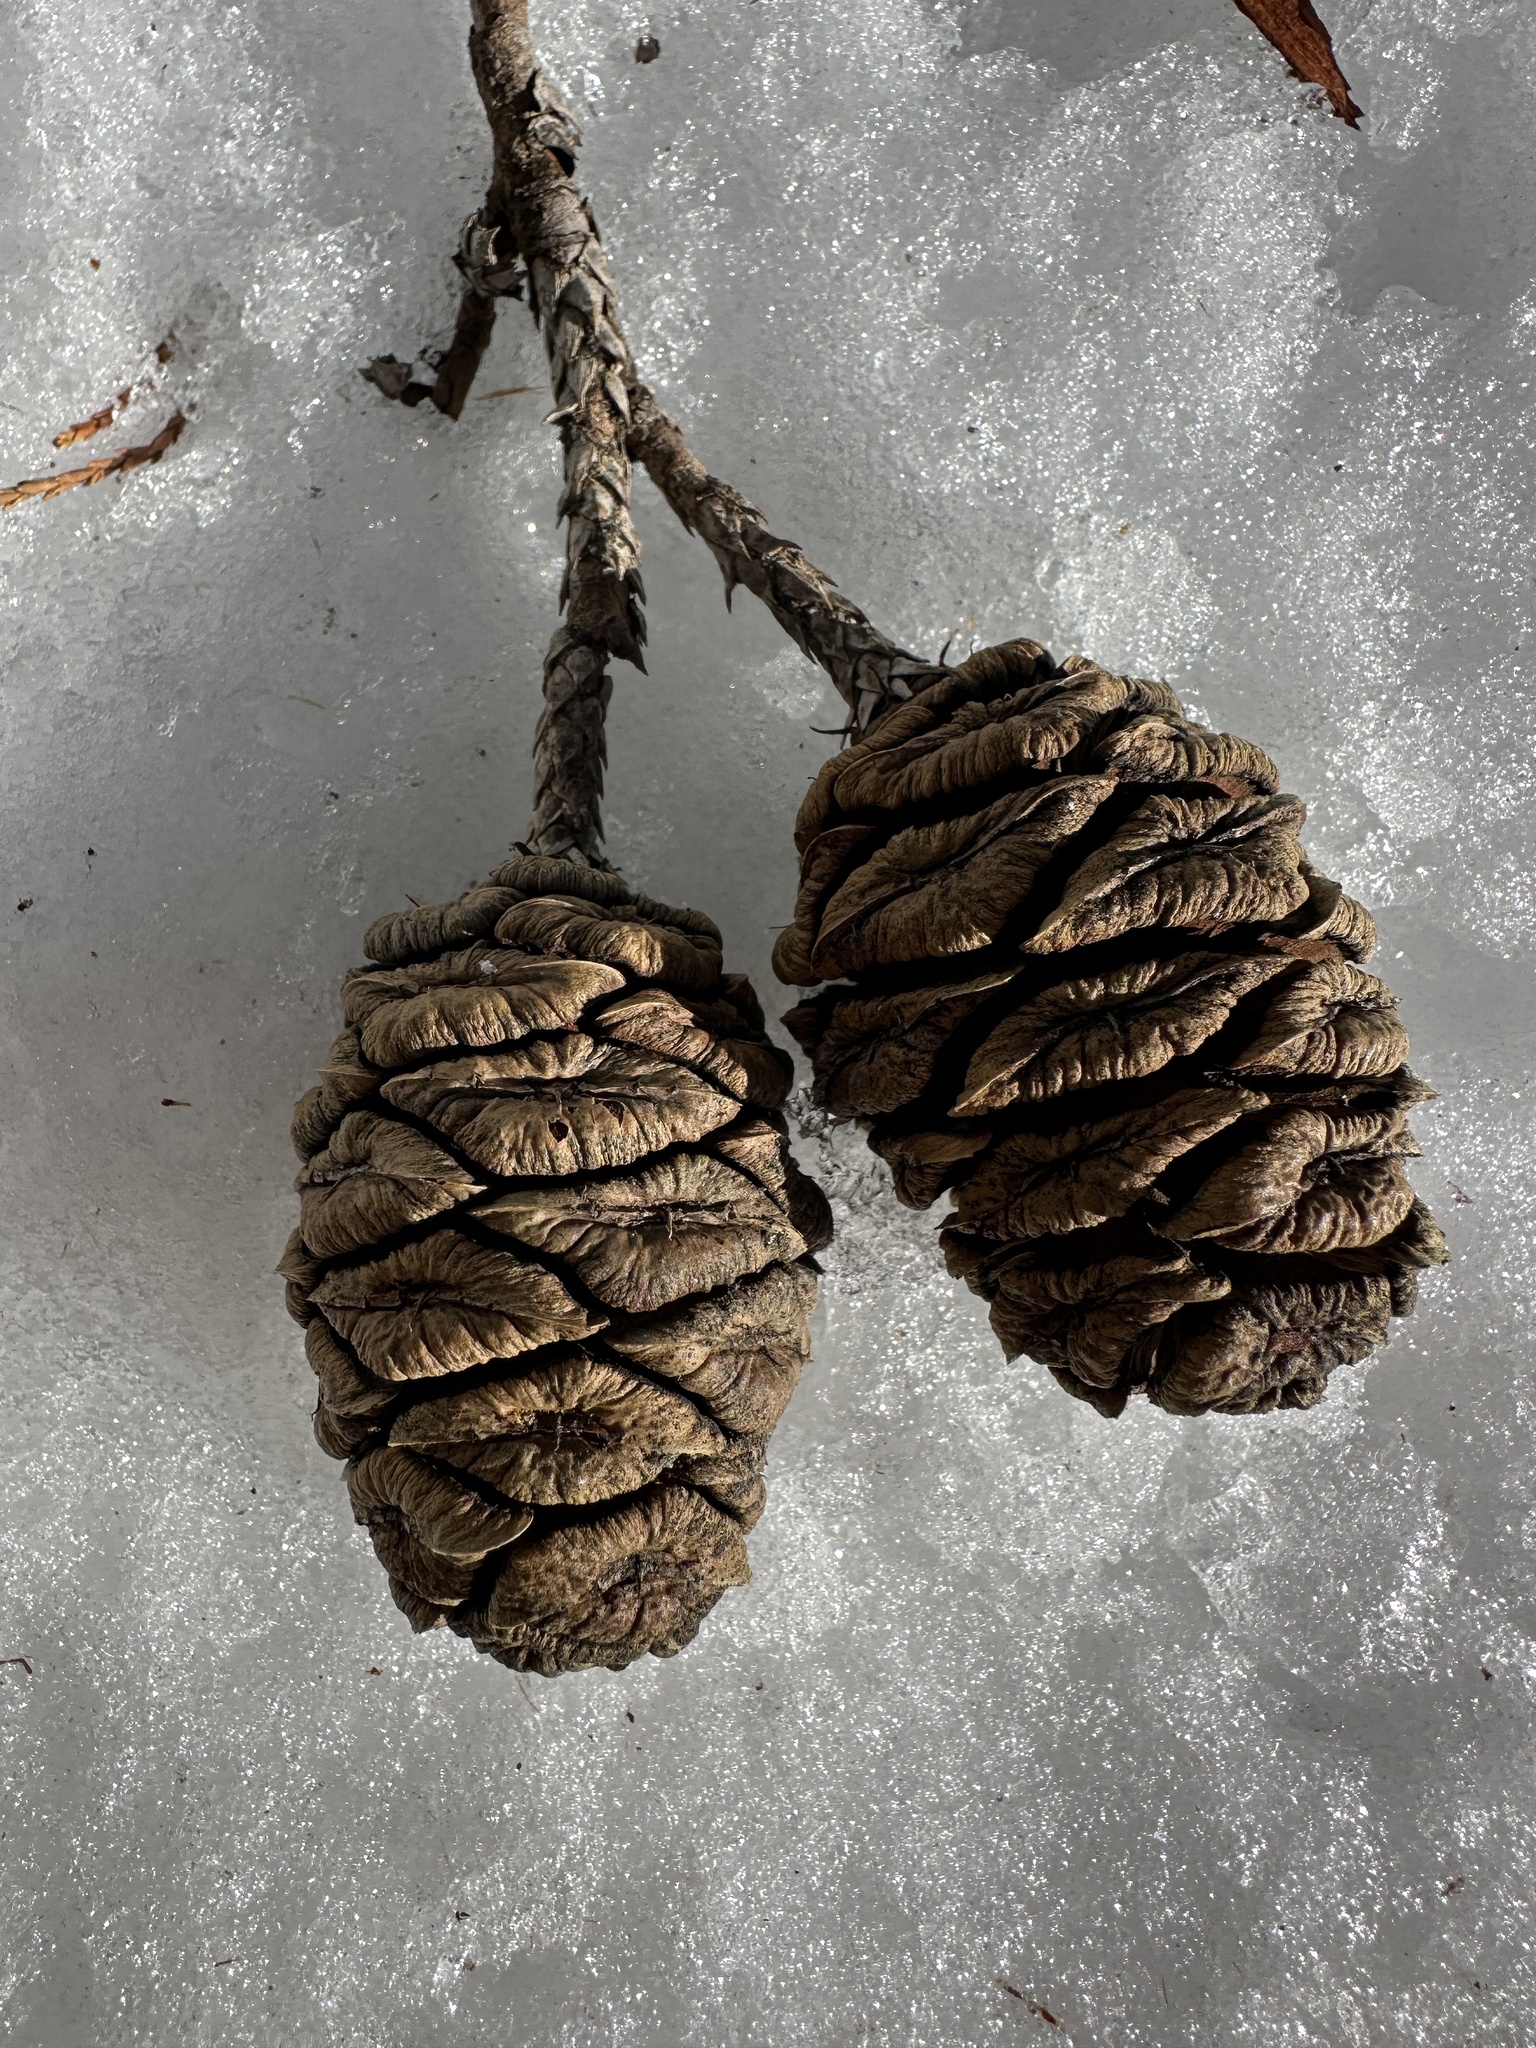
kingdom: Plantae
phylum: Tracheophyta
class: Pinopsida
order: Pinales
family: Cupressaceae
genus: Sequoiadendron
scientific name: Sequoiadendron giganteum
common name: Wellingtonia
